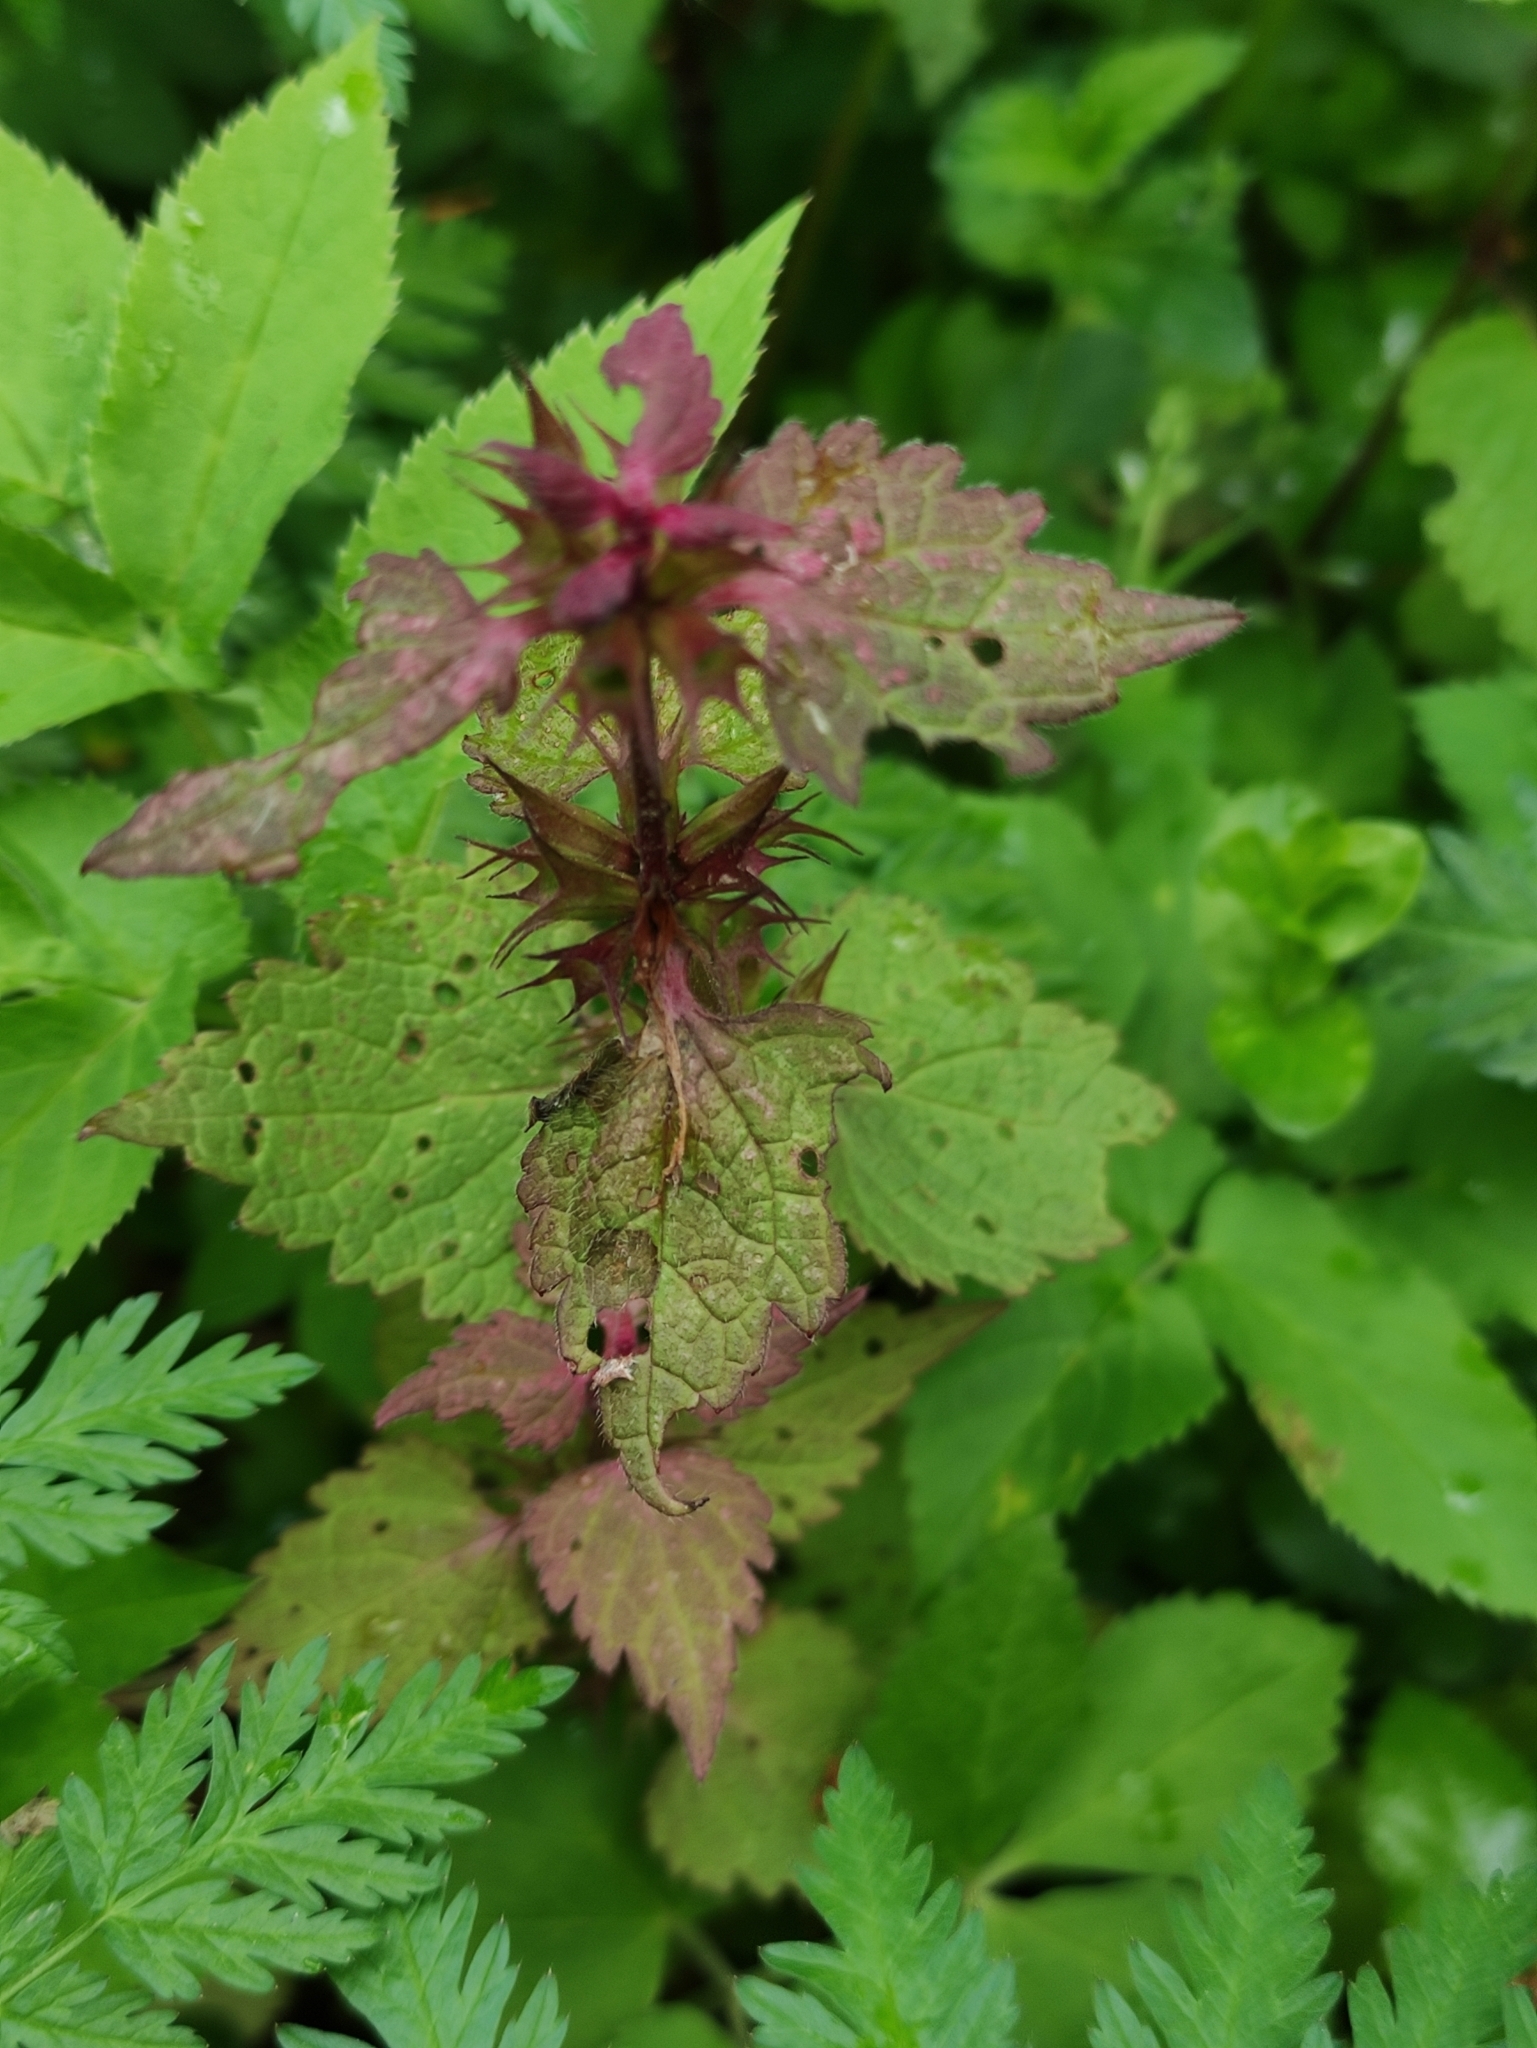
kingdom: Plantae
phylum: Tracheophyta
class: Magnoliopsida
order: Lamiales
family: Lamiaceae
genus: Lamium
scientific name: Lamium maculatum
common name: Spotted dead-nettle
